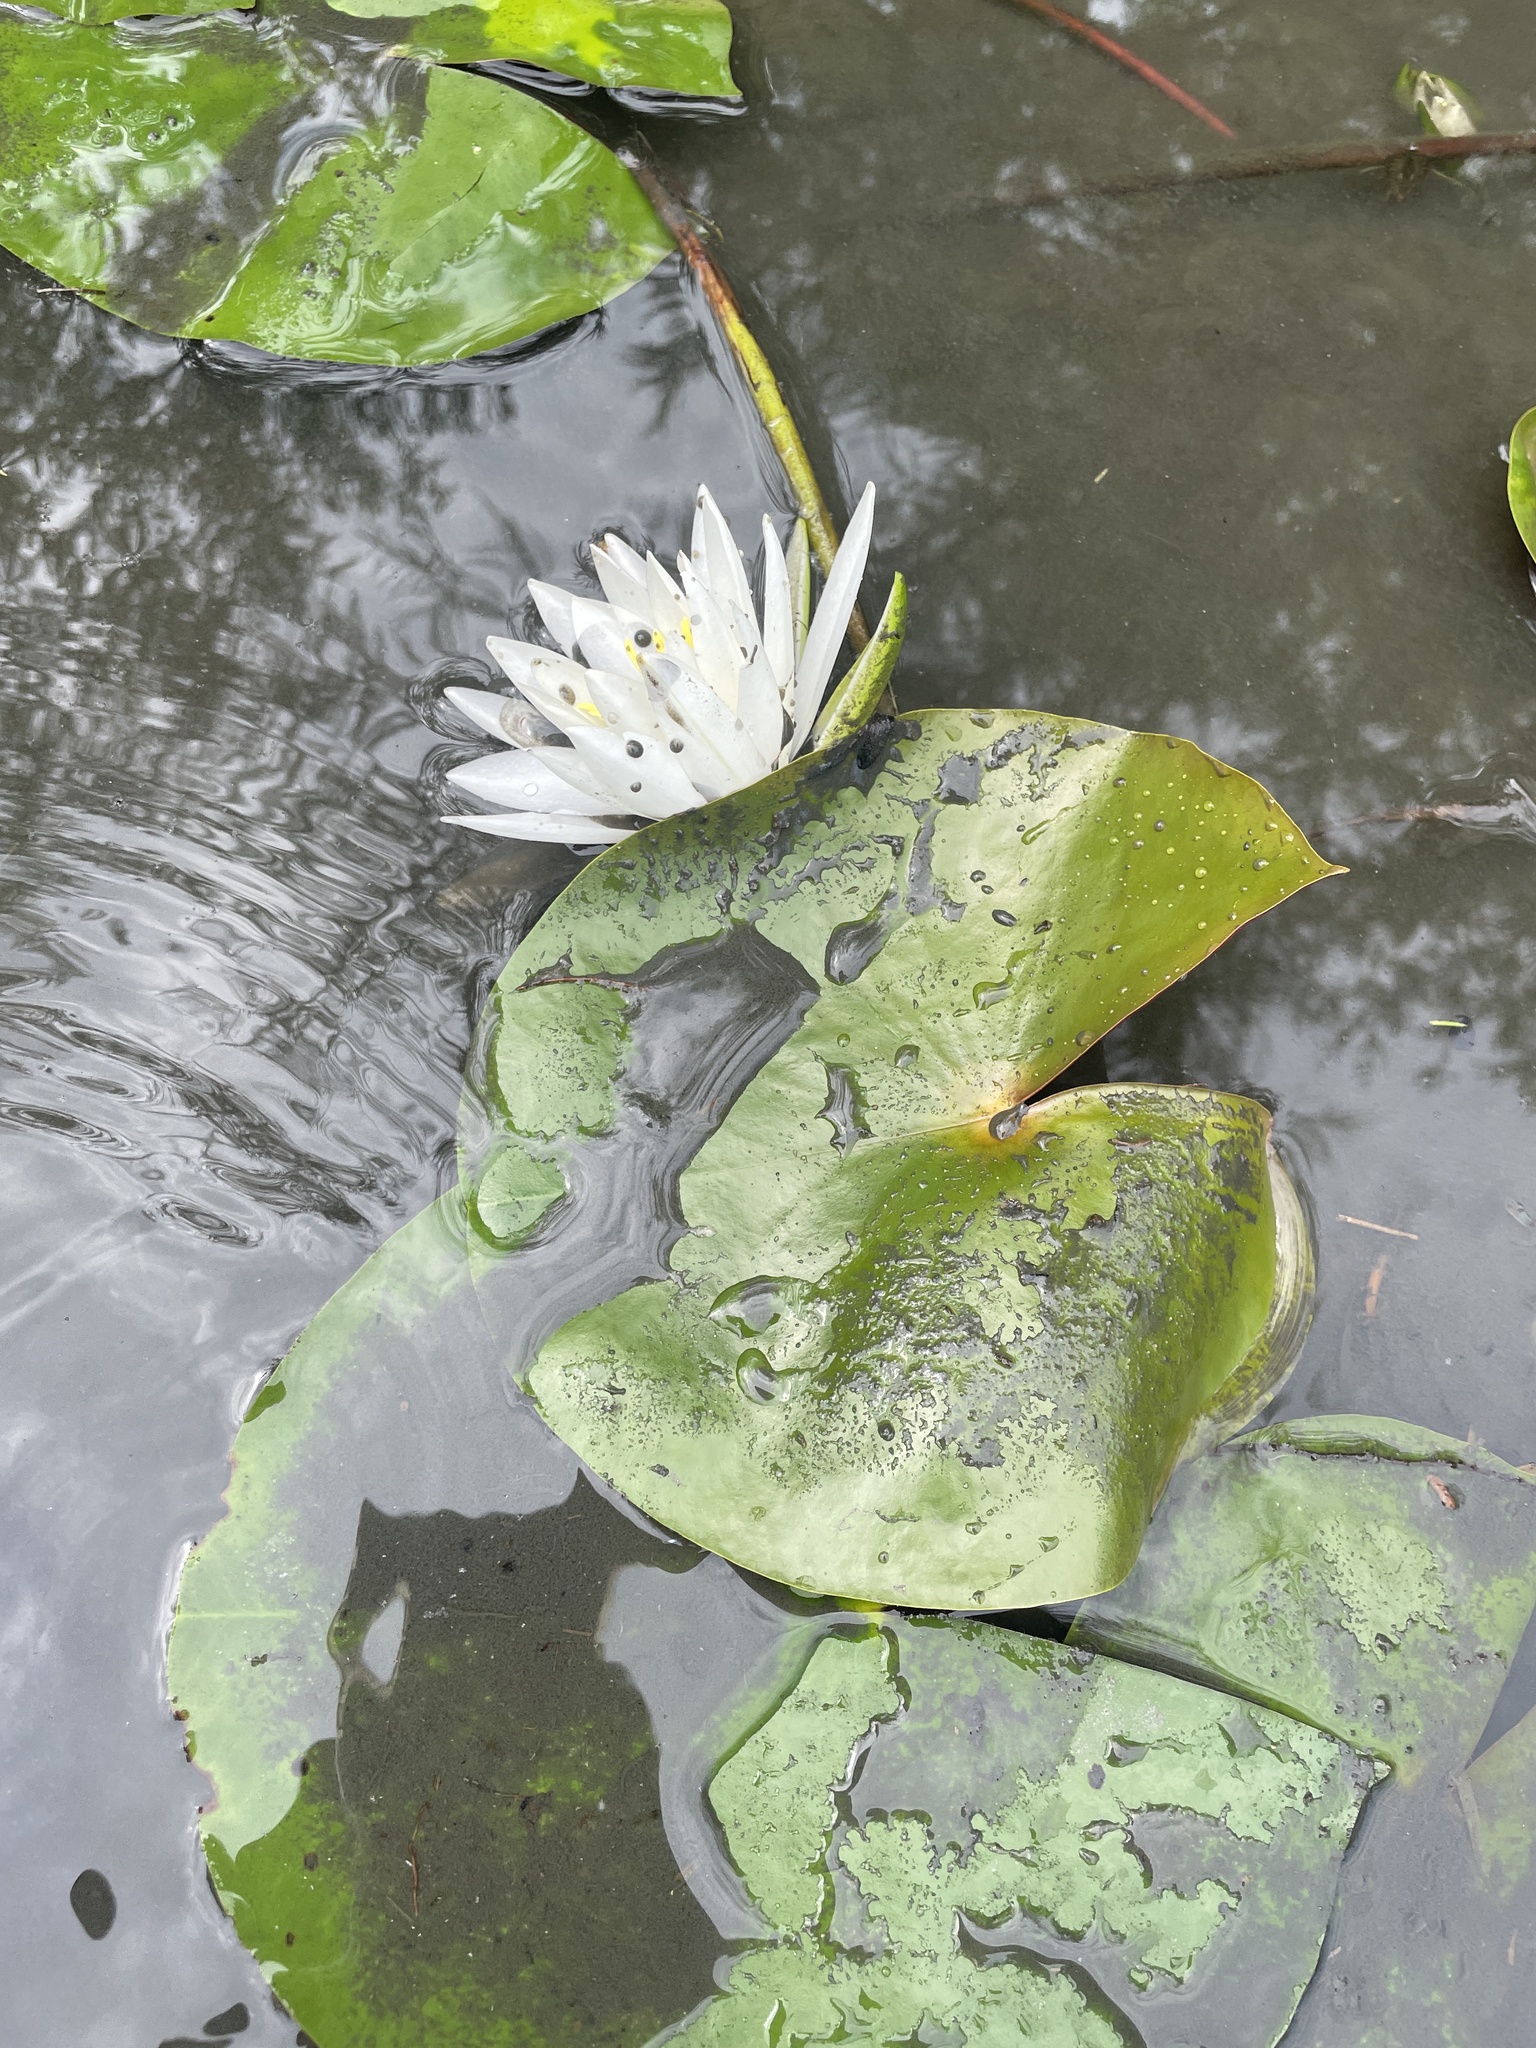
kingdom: Plantae
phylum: Tracheophyta
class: Magnoliopsida
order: Nymphaeales
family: Nymphaeaceae
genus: Nymphaea
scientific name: Nymphaea odorata
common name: Fragrant water-lily
